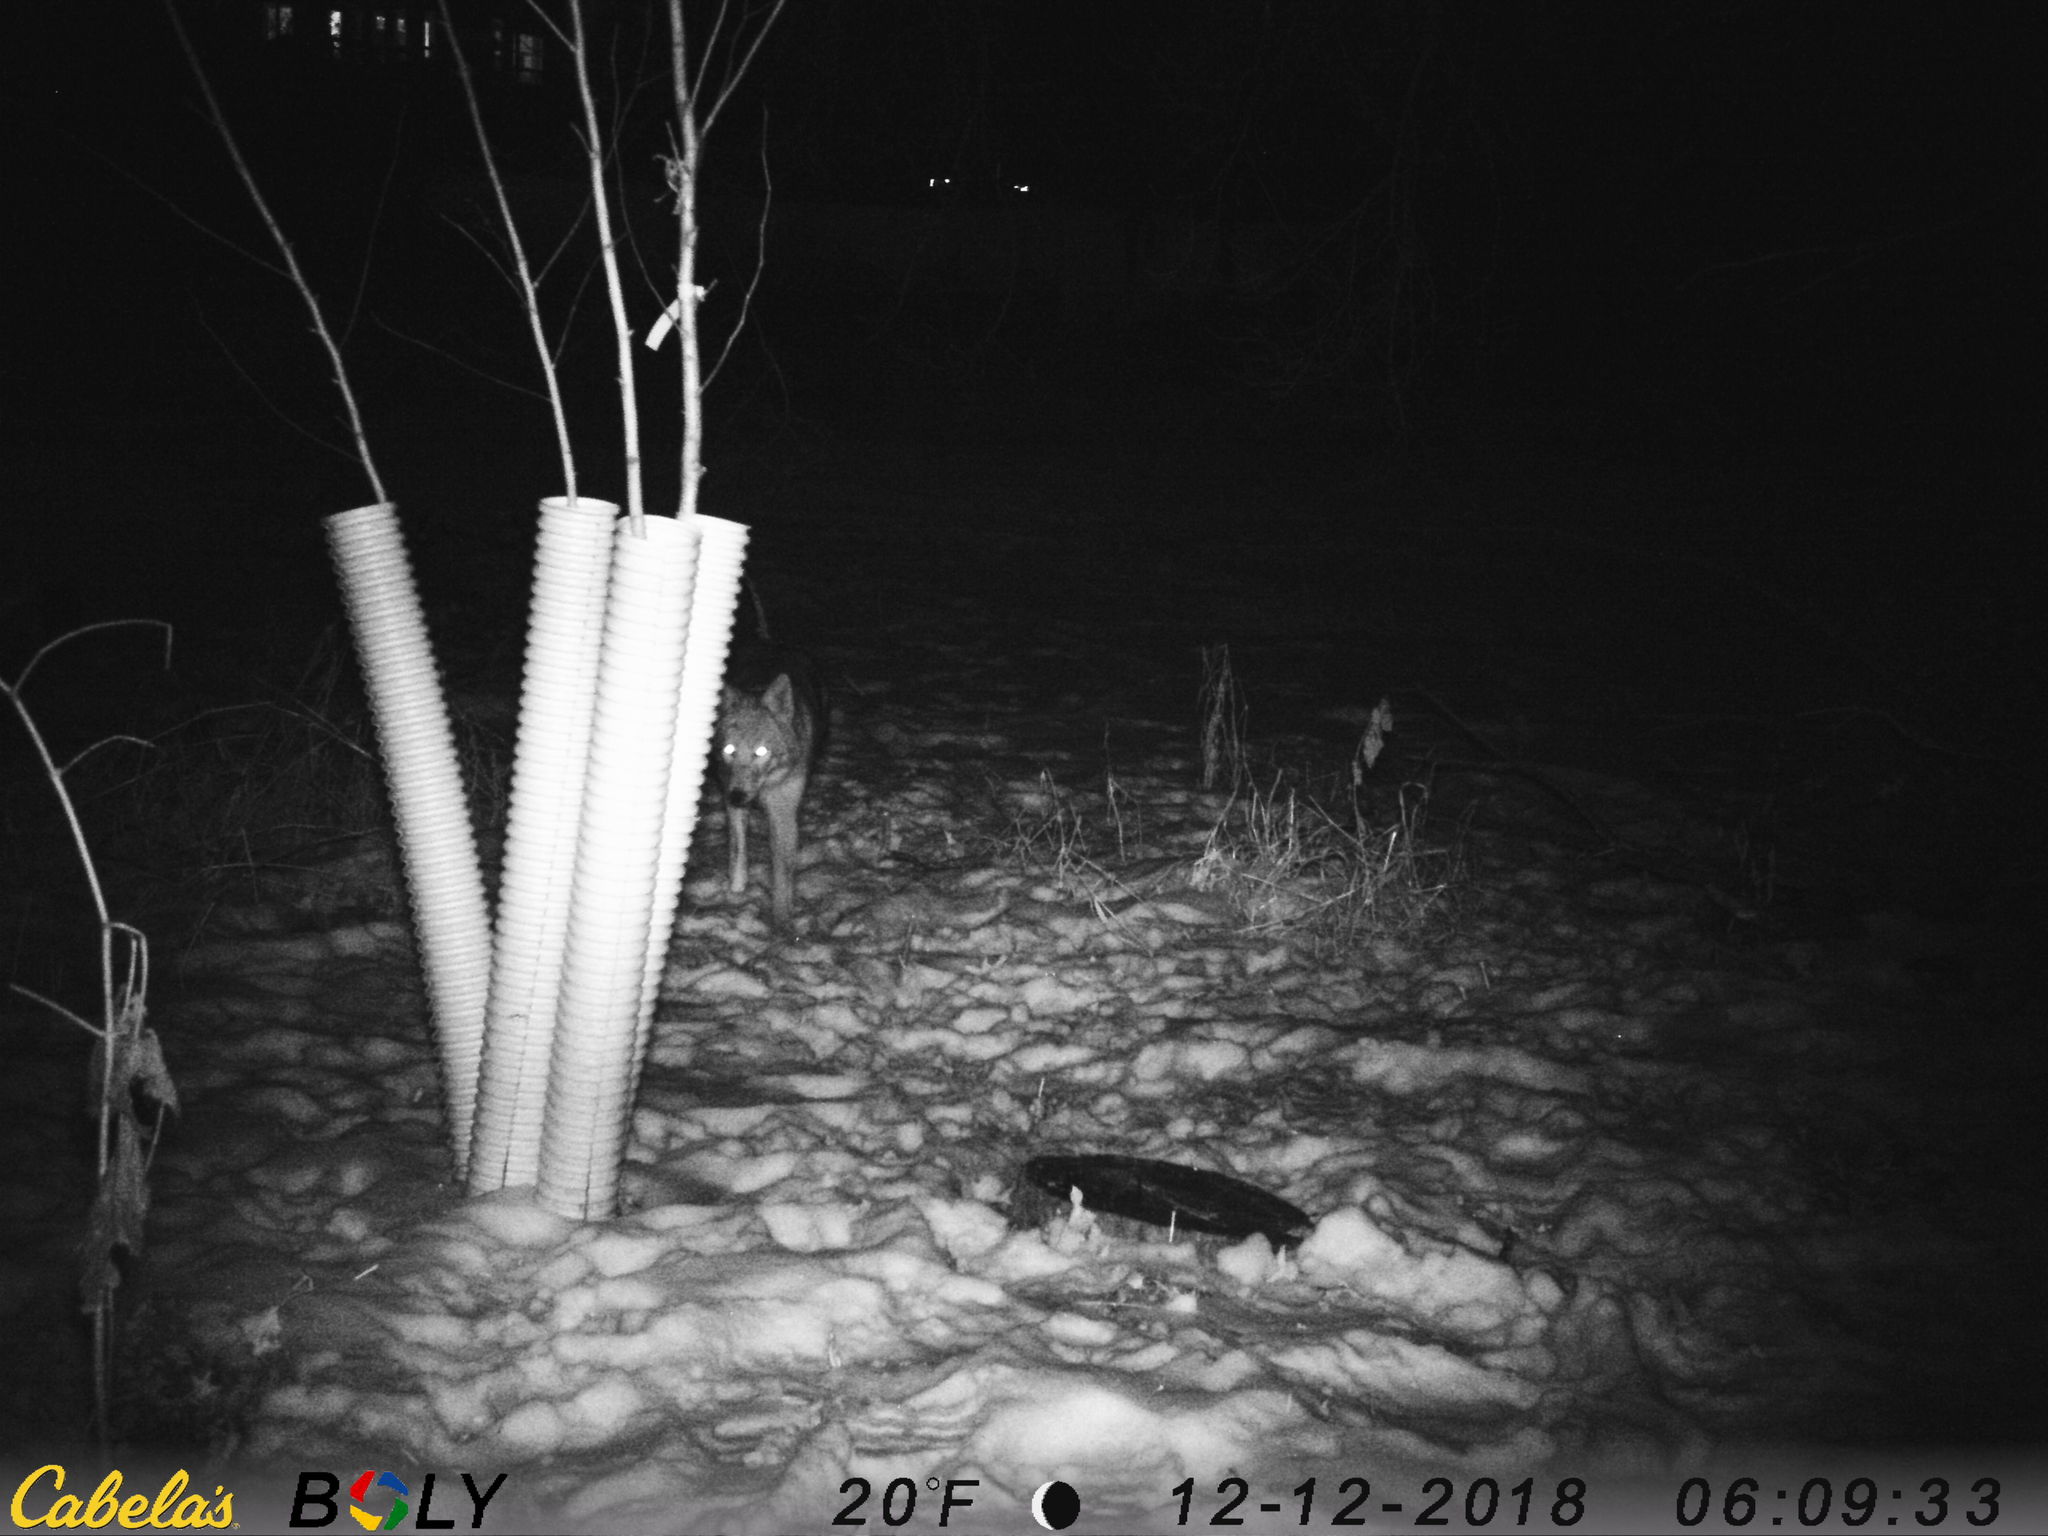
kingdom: Animalia
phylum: Chordata
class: Mammalia
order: Carnivora
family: Canidae
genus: Canis
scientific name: Canis latrans
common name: Coyote
